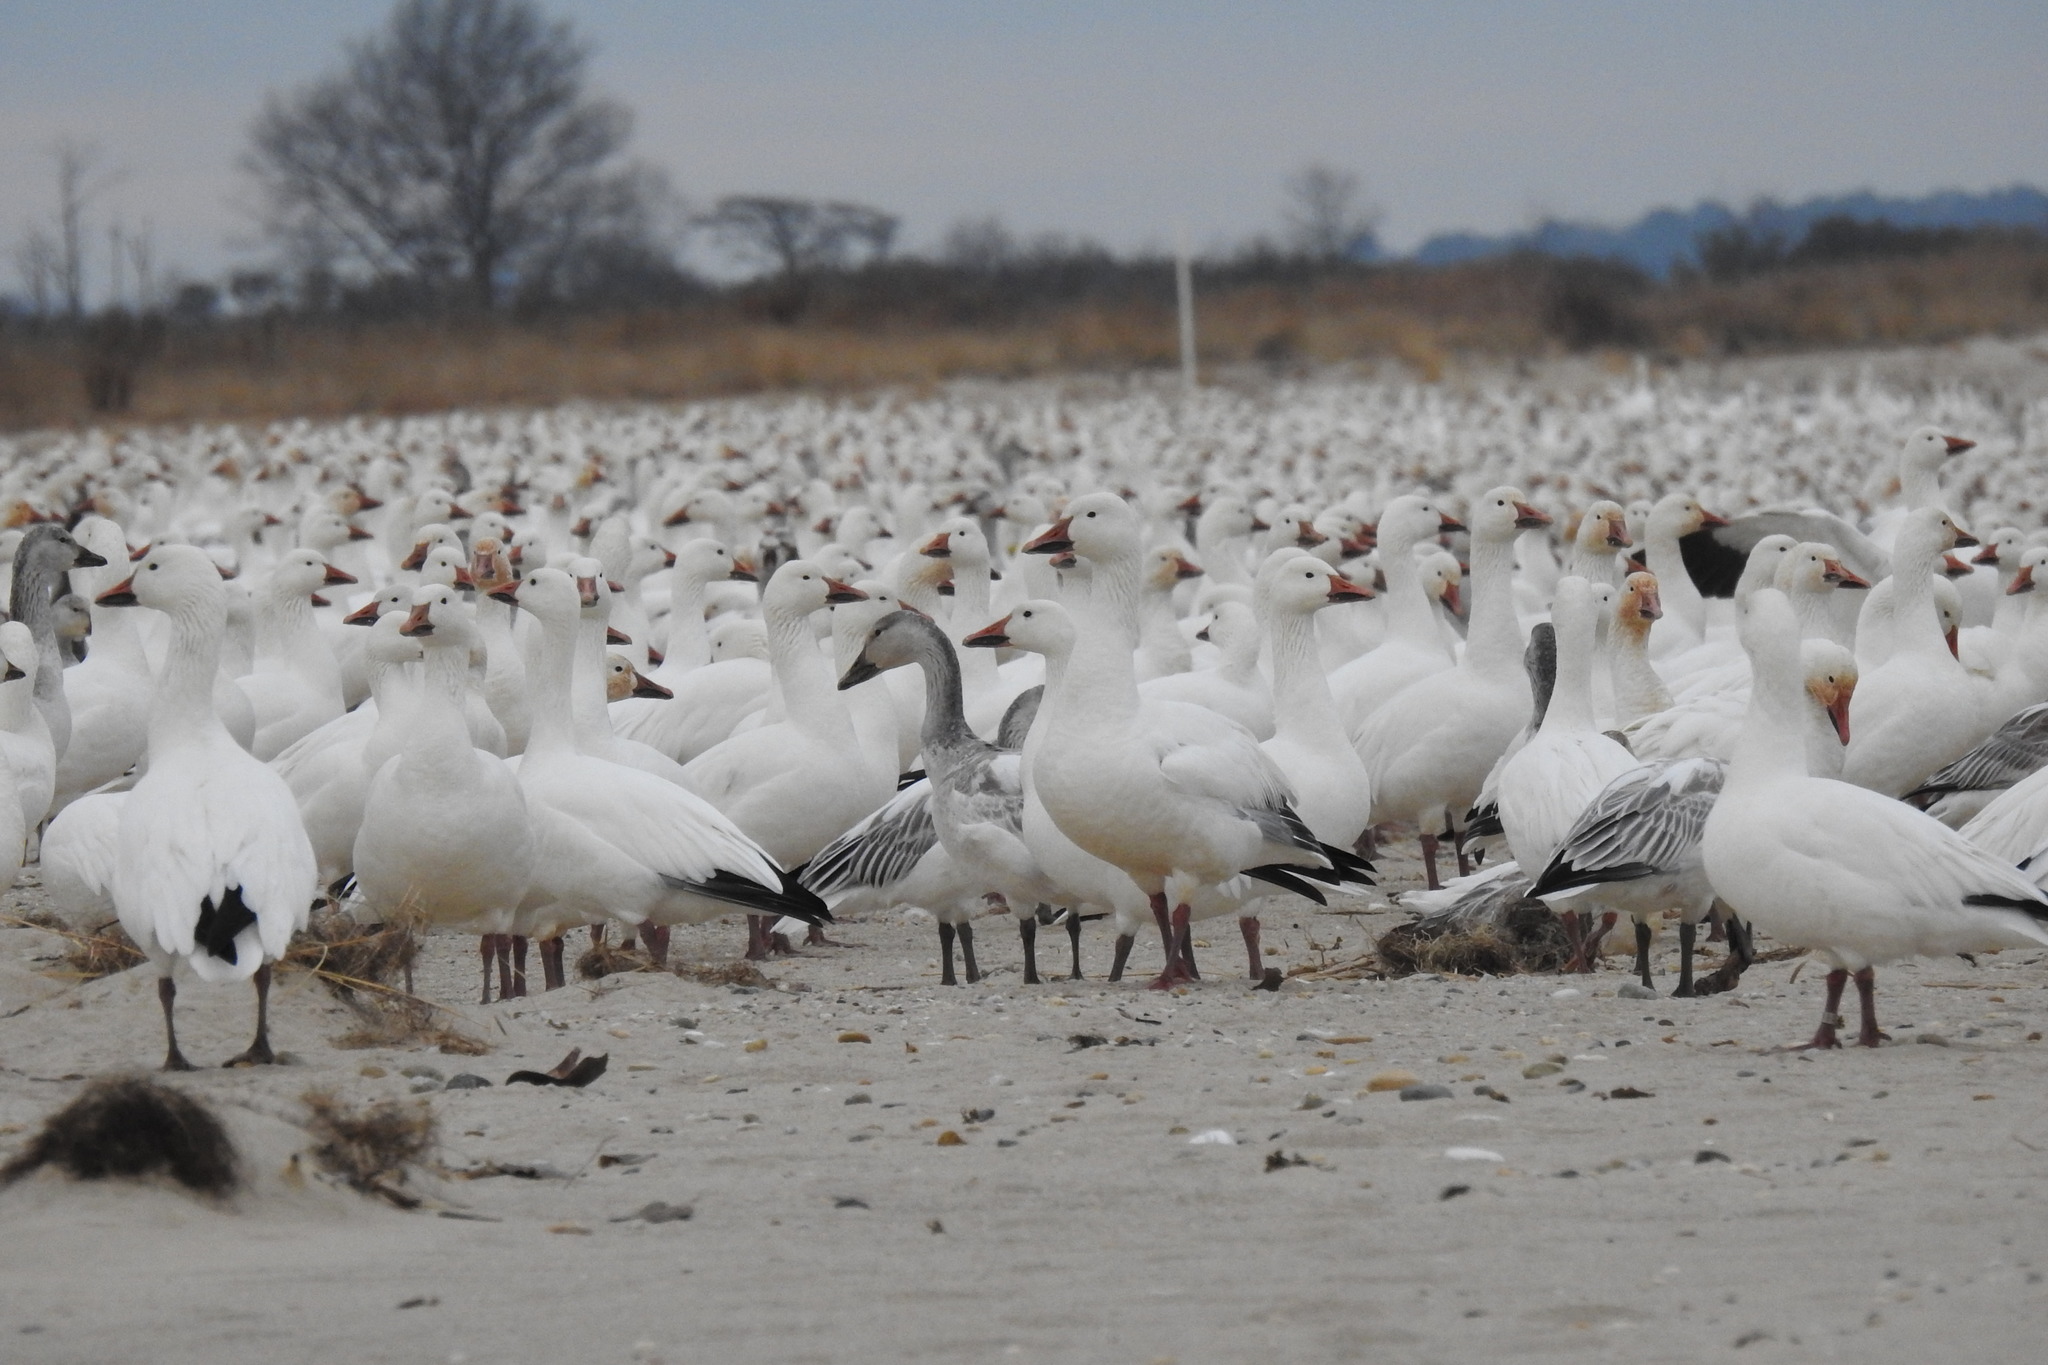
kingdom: Animalia
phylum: Chordata
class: Aves
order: Anseriformes
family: Anatidae
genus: Anser
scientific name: Anser caerulescens
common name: Snow goose
